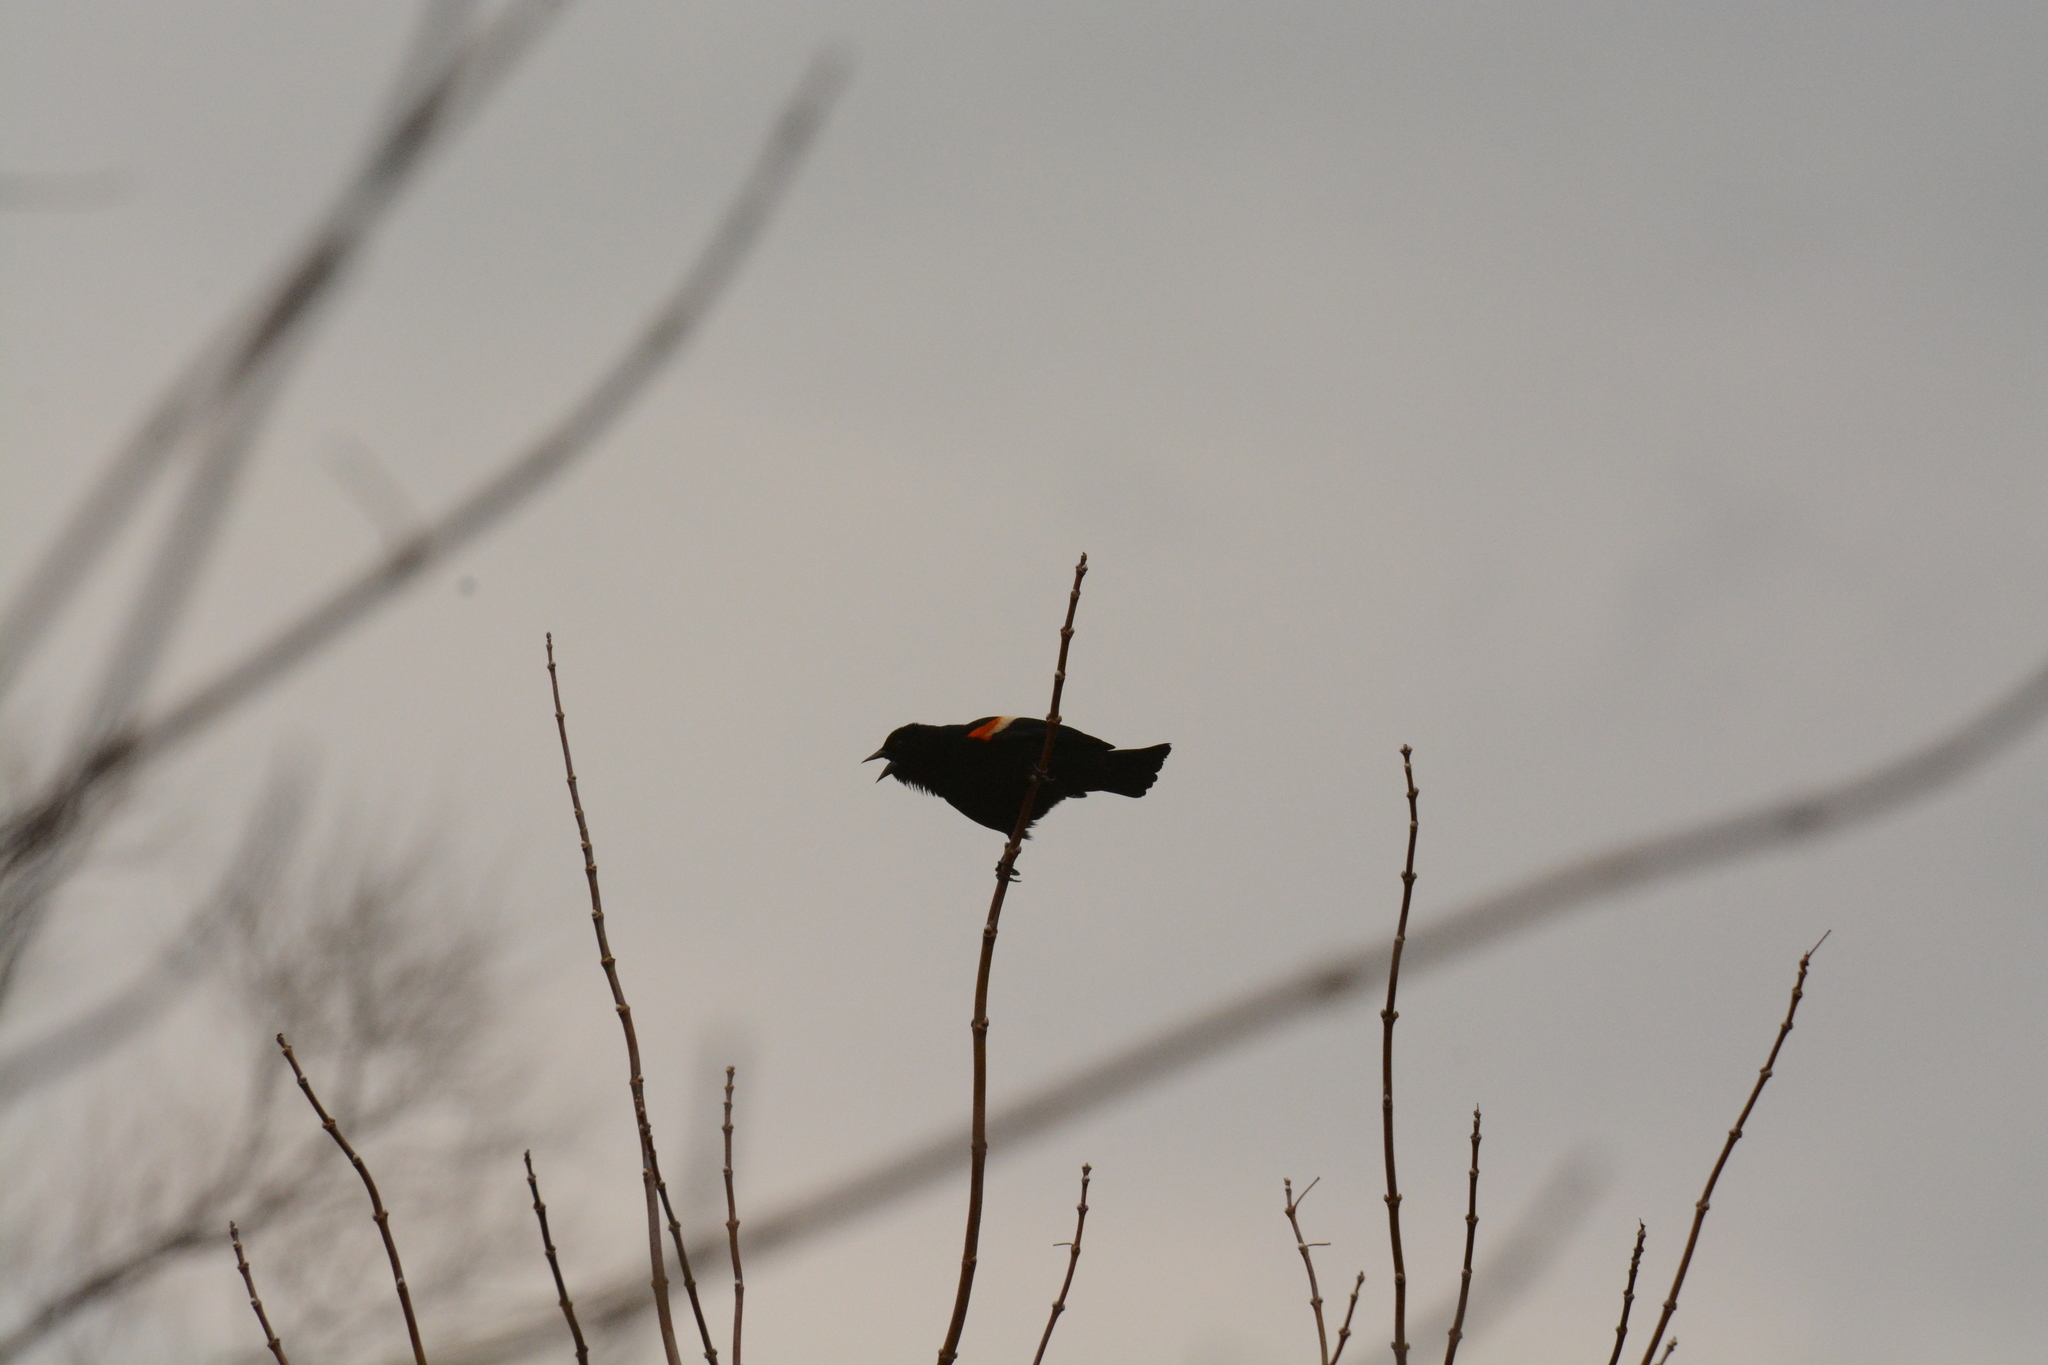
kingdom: Animalia
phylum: Chordata
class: Aves
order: Passeriformes
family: Icteridae
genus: Agelaius
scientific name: Agelaius phoeniceus
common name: Red-winged blackbird
